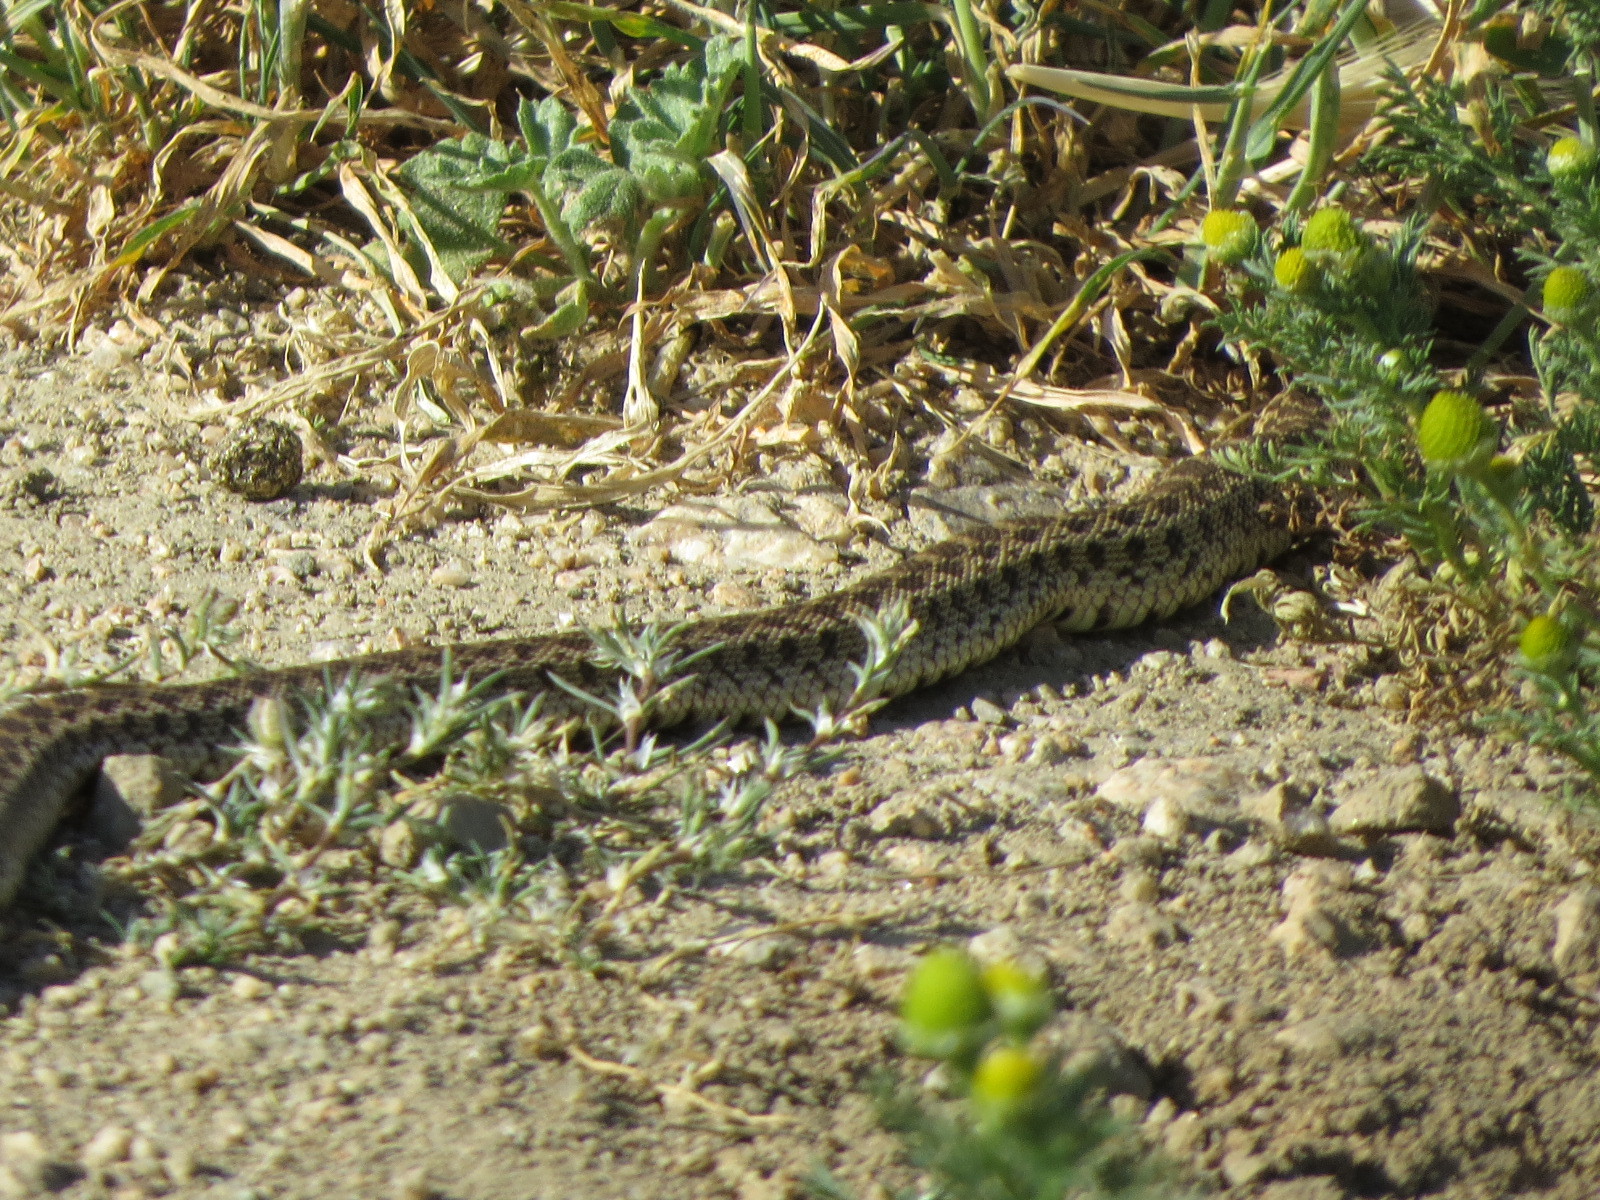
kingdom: Animalia
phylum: Chordata
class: Squamata
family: Colubridae
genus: Pituophis
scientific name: Pituophis catenifer
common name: Gopher snake
